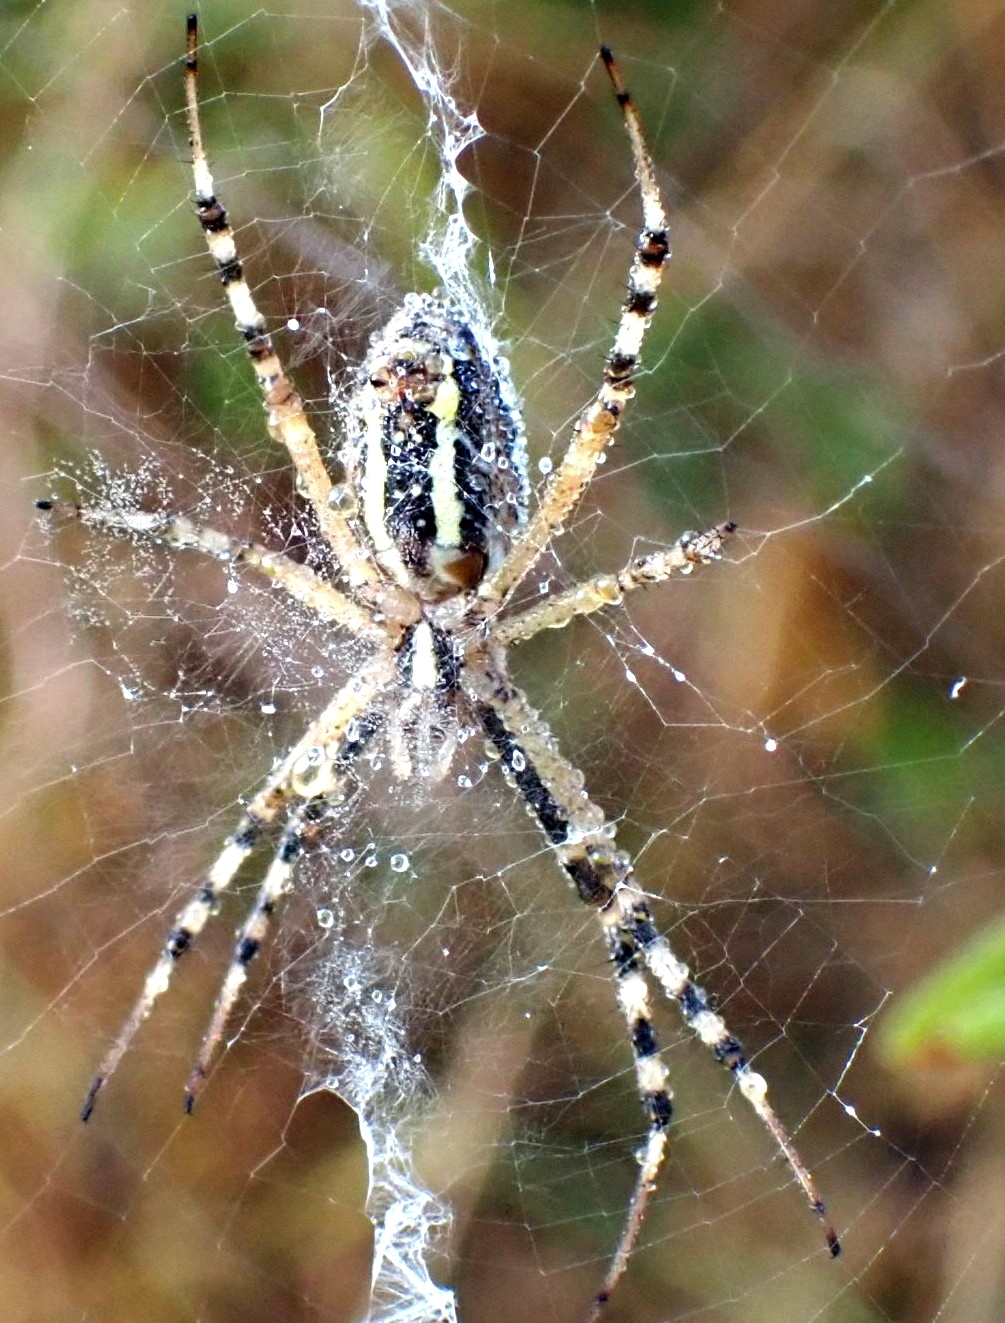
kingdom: Animalia
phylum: Arthropoda
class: Arachnida
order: Araneae
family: Araneidae
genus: Argiope
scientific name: Argiope bruennichi
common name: Wasp spider
